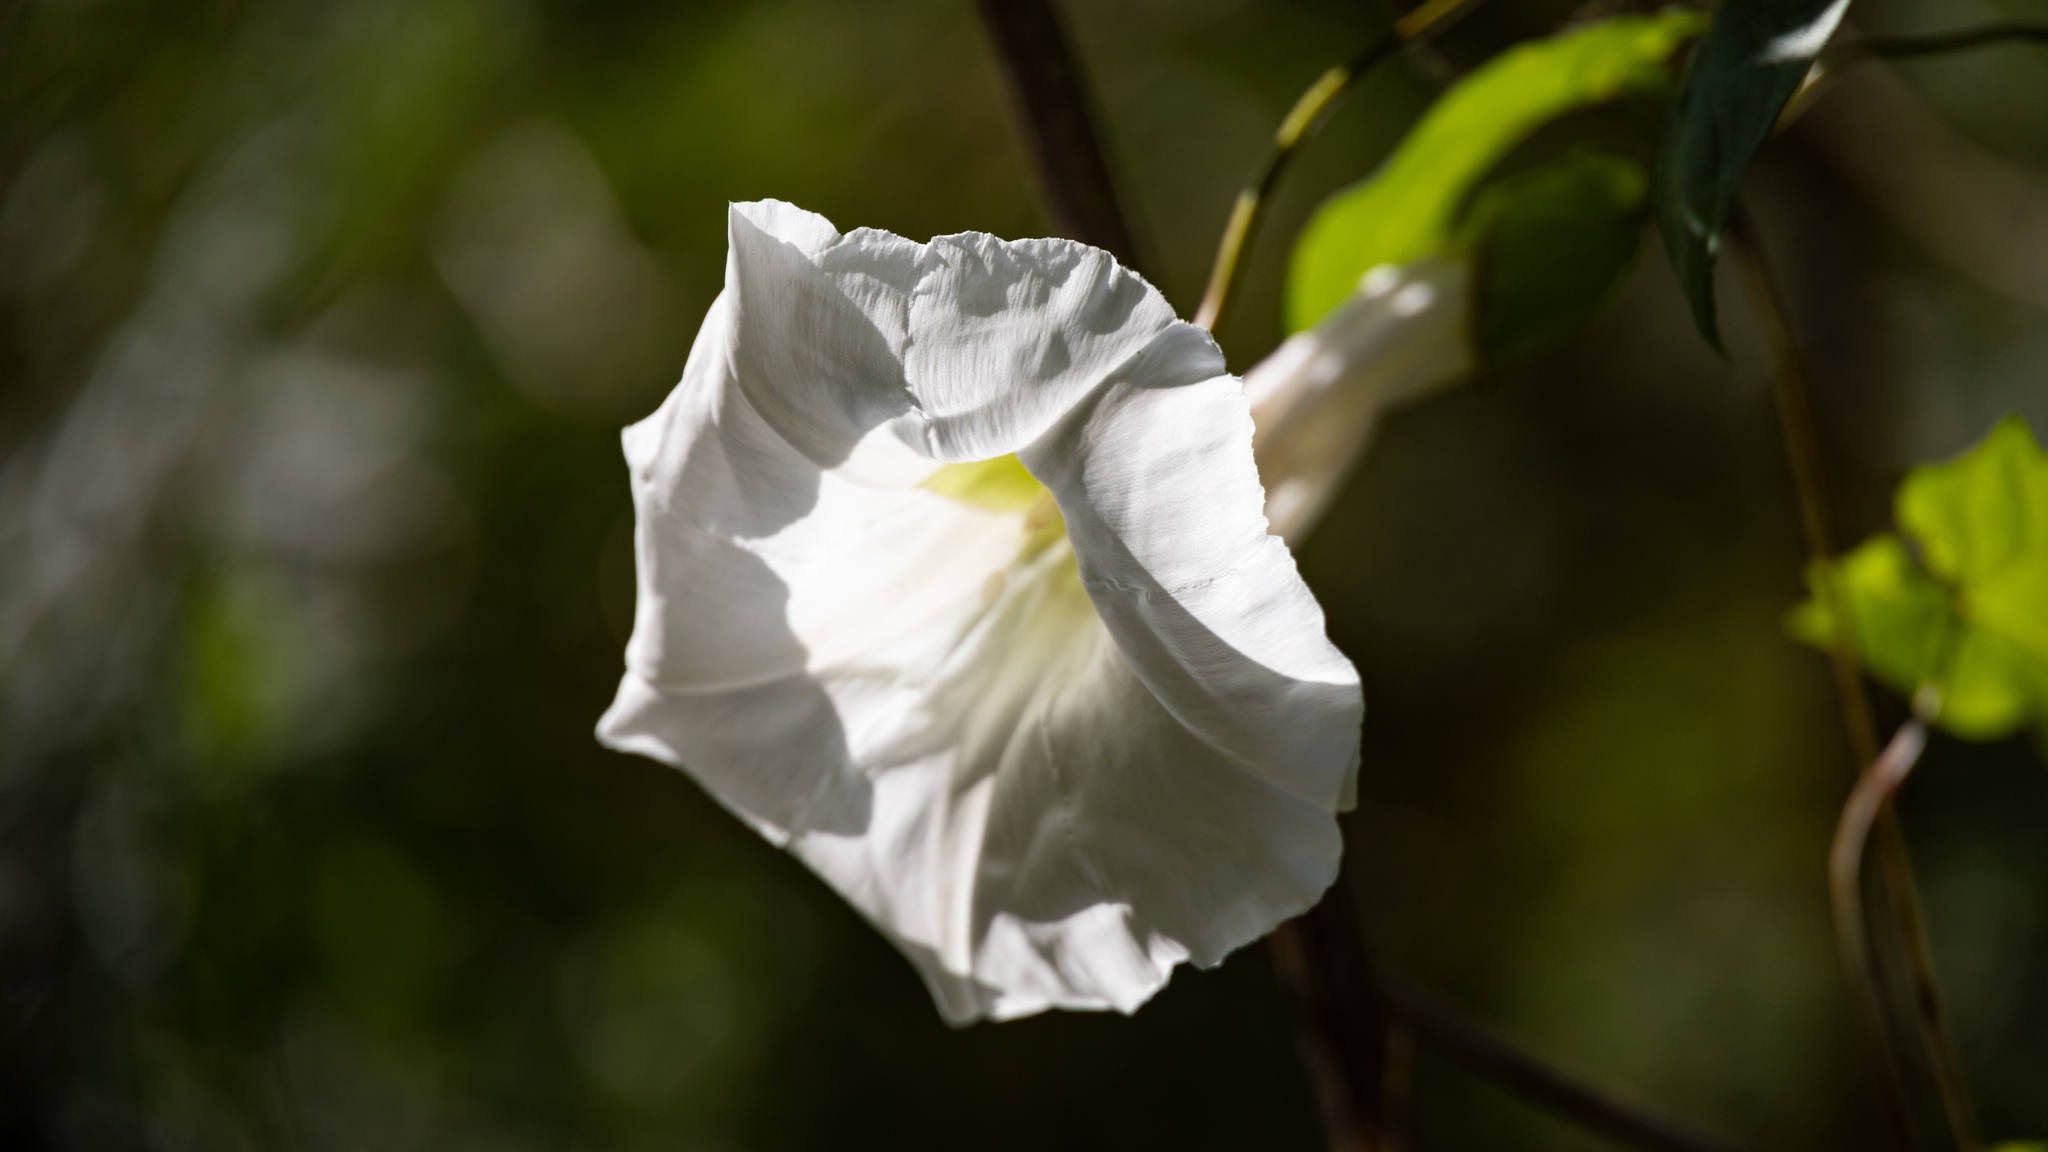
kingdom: Plantae
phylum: Tracheophyta
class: Magnoliopsida
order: Solanales
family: Convolvulaceae
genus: Calystegia
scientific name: Calystegia silvatica
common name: Large bindweed
